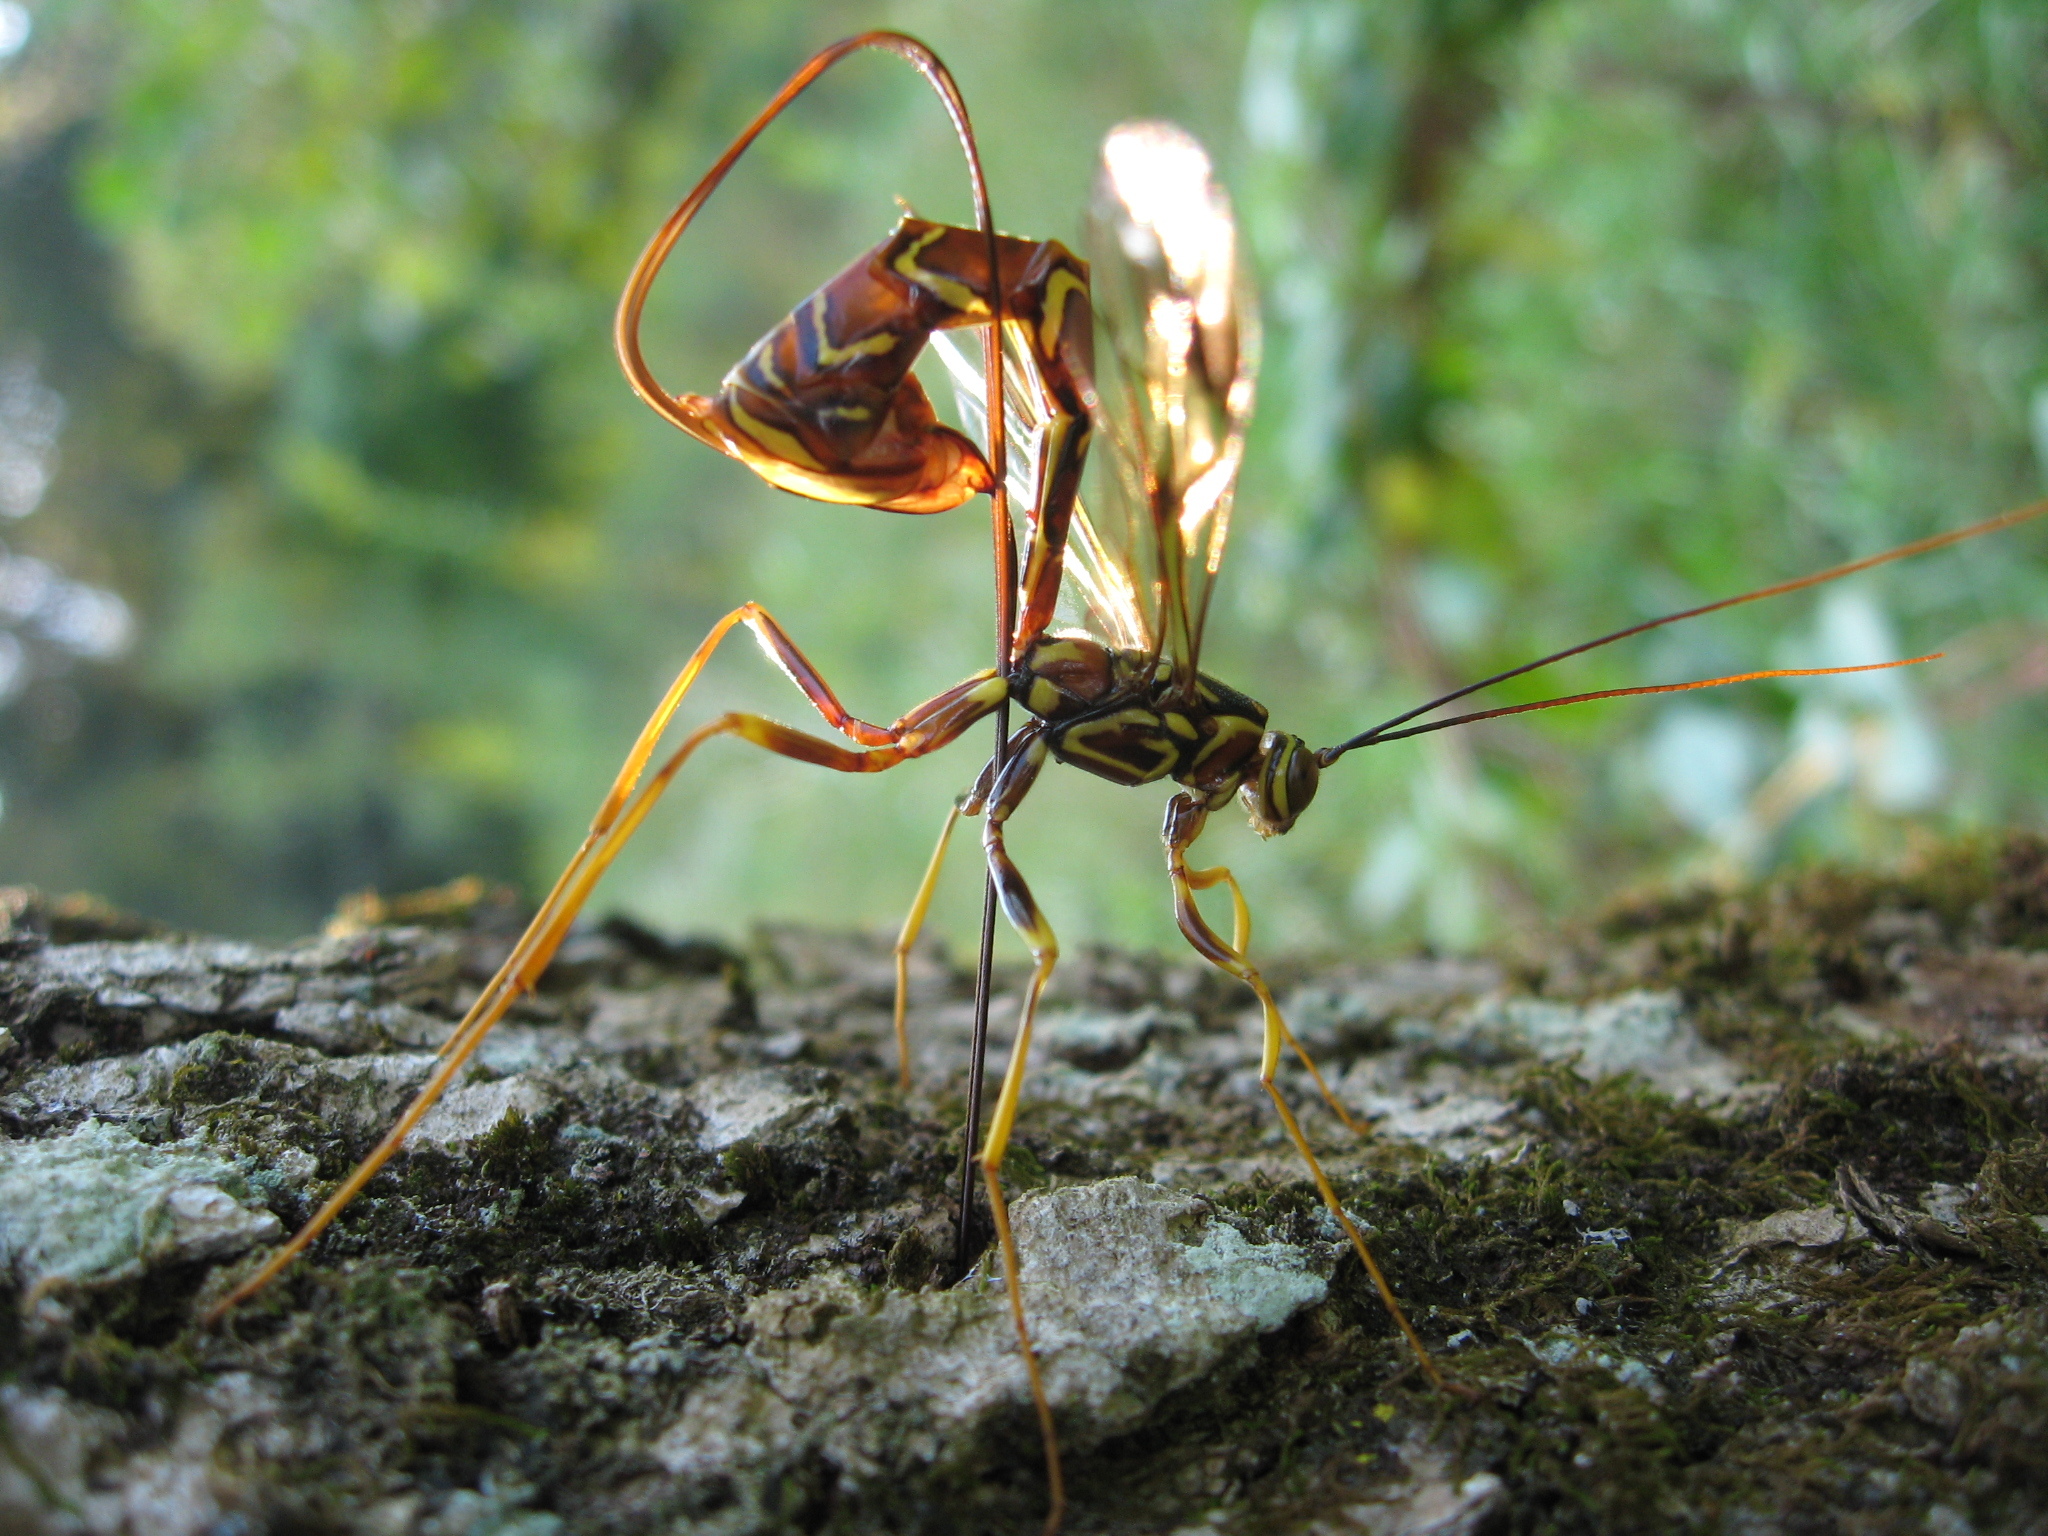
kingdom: Animalia
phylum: Arthropoda
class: Insecta
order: Hymenoptera
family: Ichneumonidae
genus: Megarhyssa
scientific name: Megarhyssa macrura
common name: Long-tailed giant ichneumonid wasp
